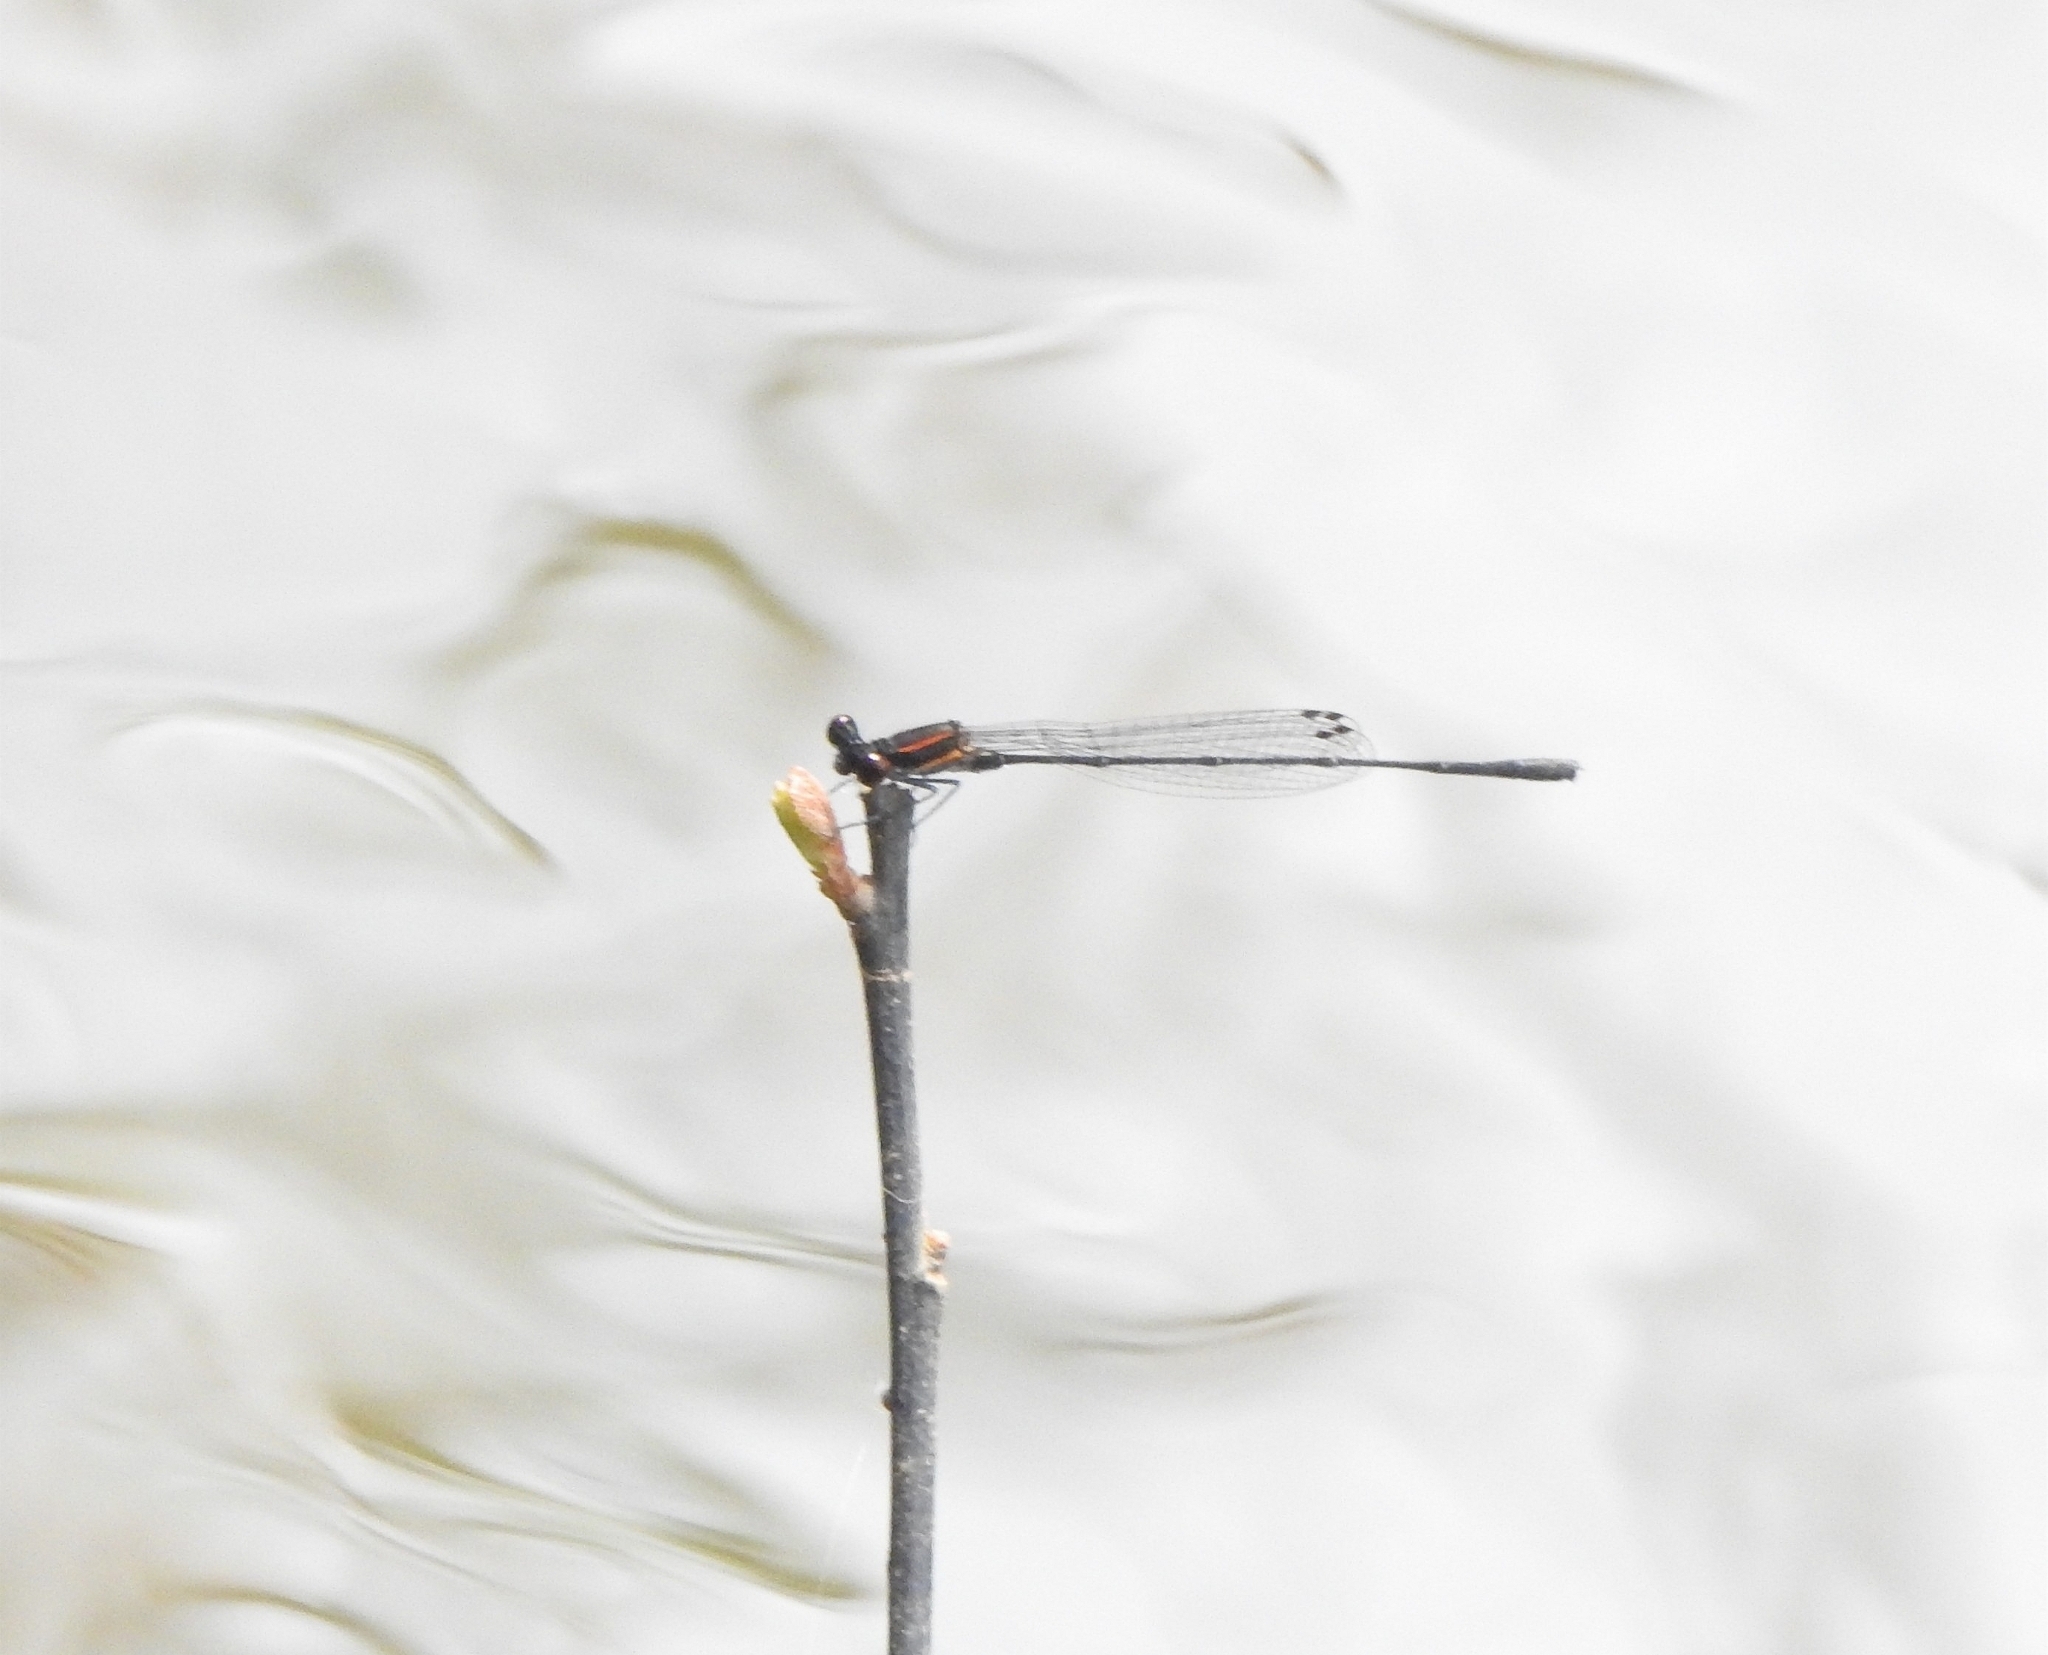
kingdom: Animalia
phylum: Arthropoda
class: Insecta
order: Odonata
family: Platycnemididae
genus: Prodasineura
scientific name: Prodasineura verticalis
